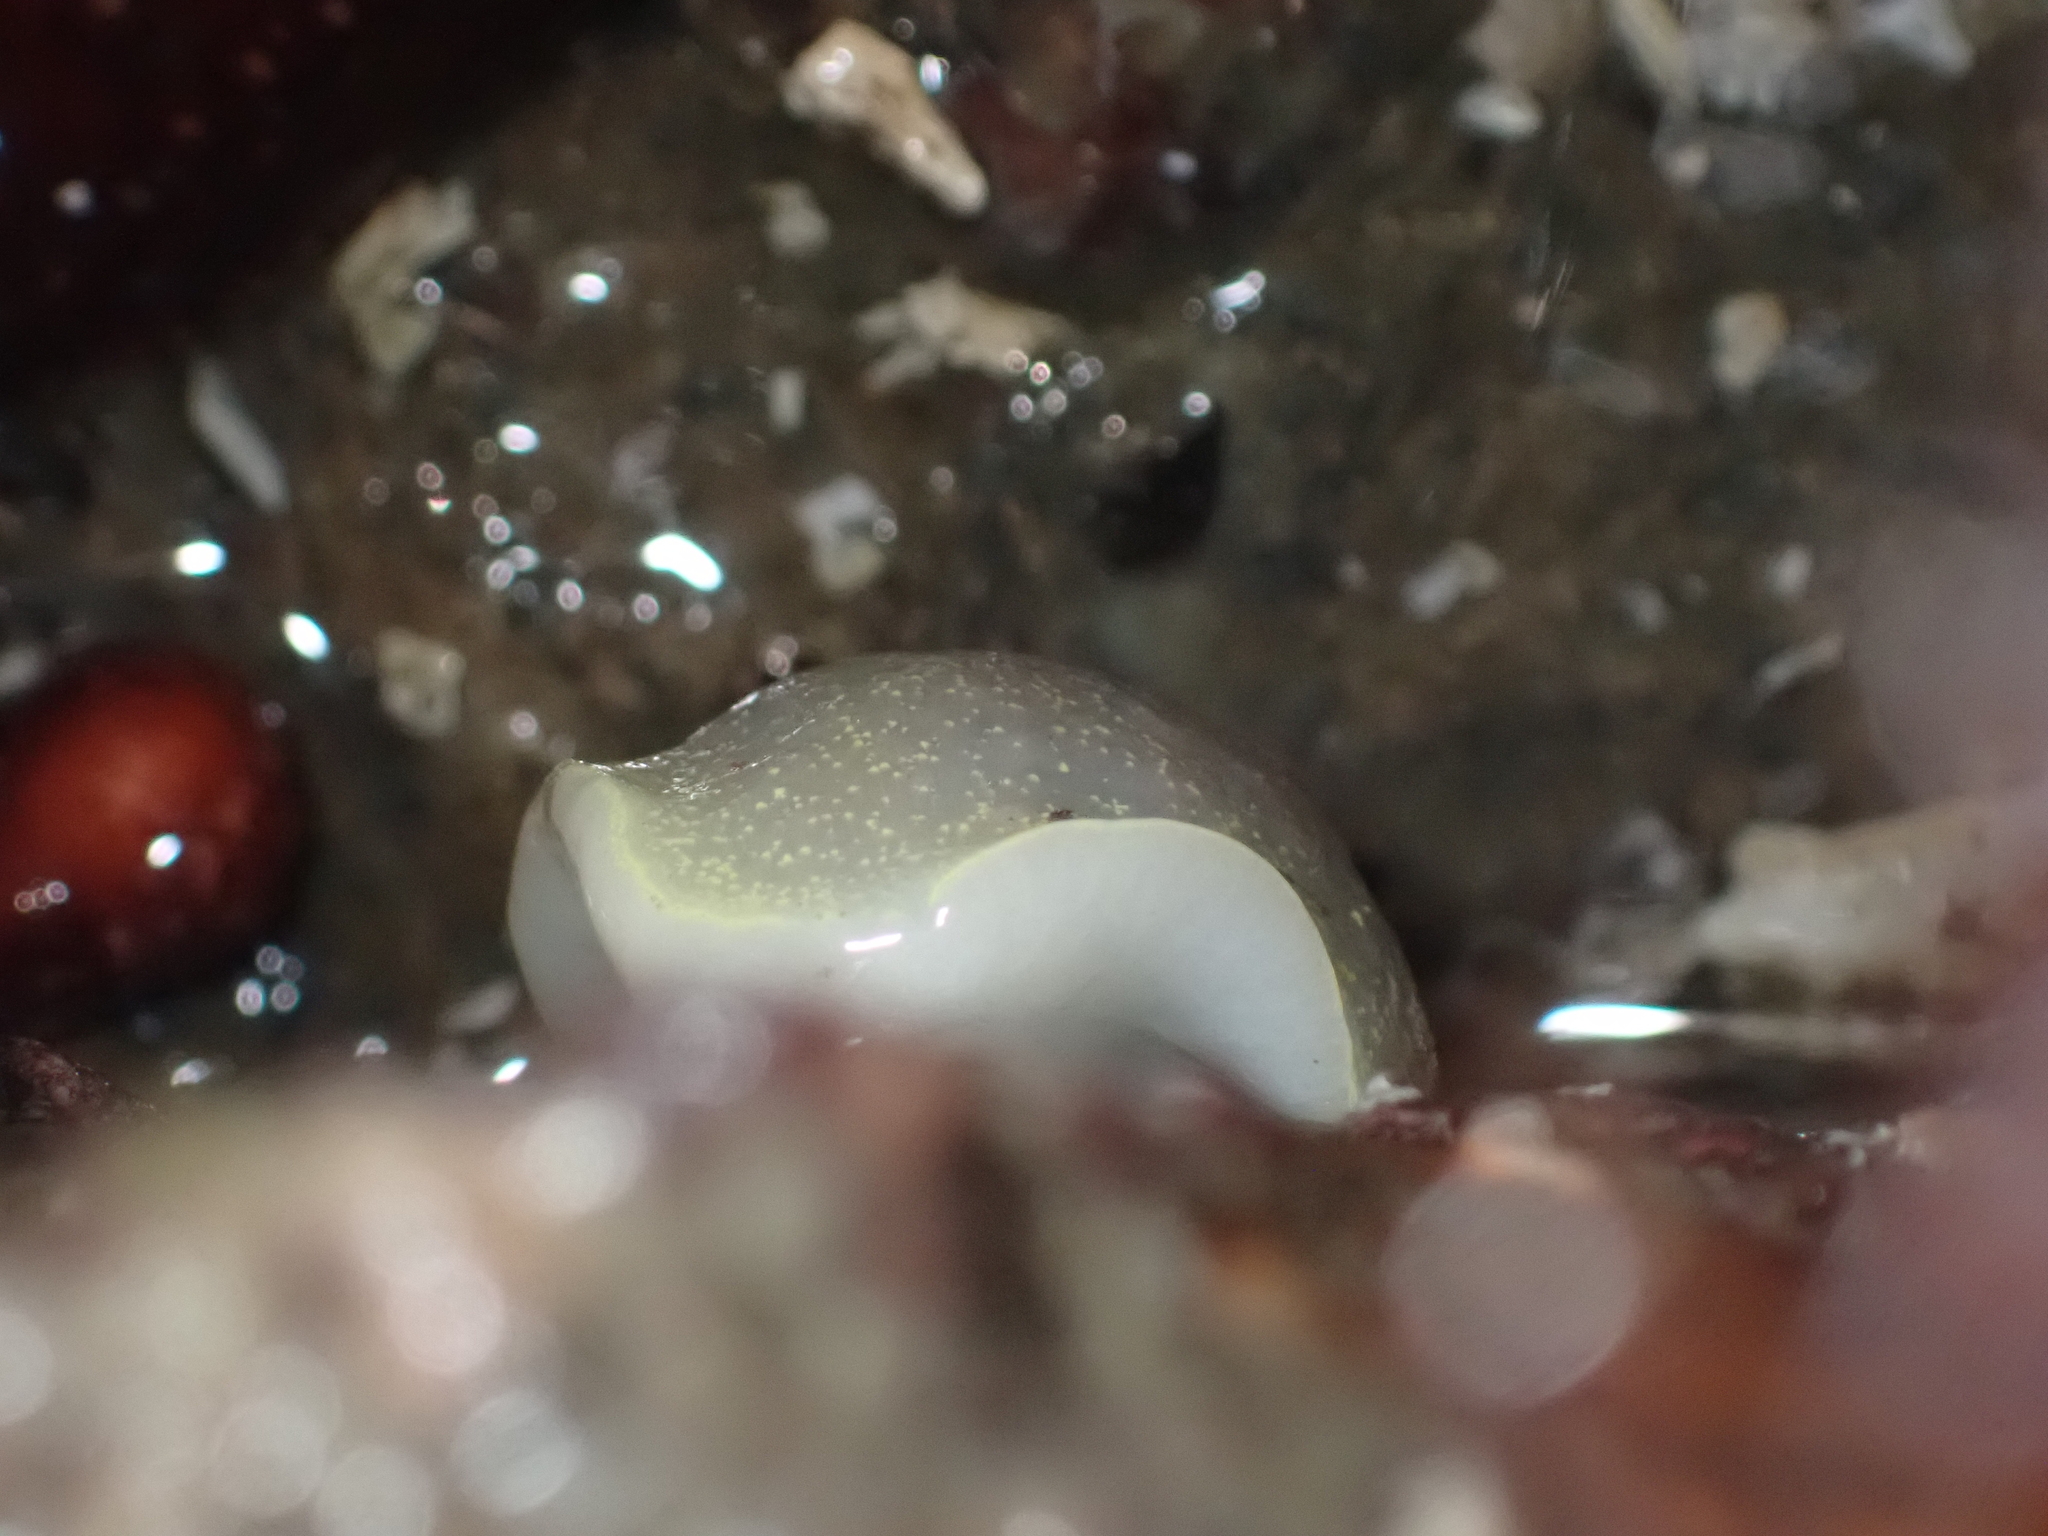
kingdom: Animalia
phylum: Mollusca
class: Gastropoda
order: Nudibranchia
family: Onchidorididae
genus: Acanthodoris
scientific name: Acanthodoris nanaimoensis
